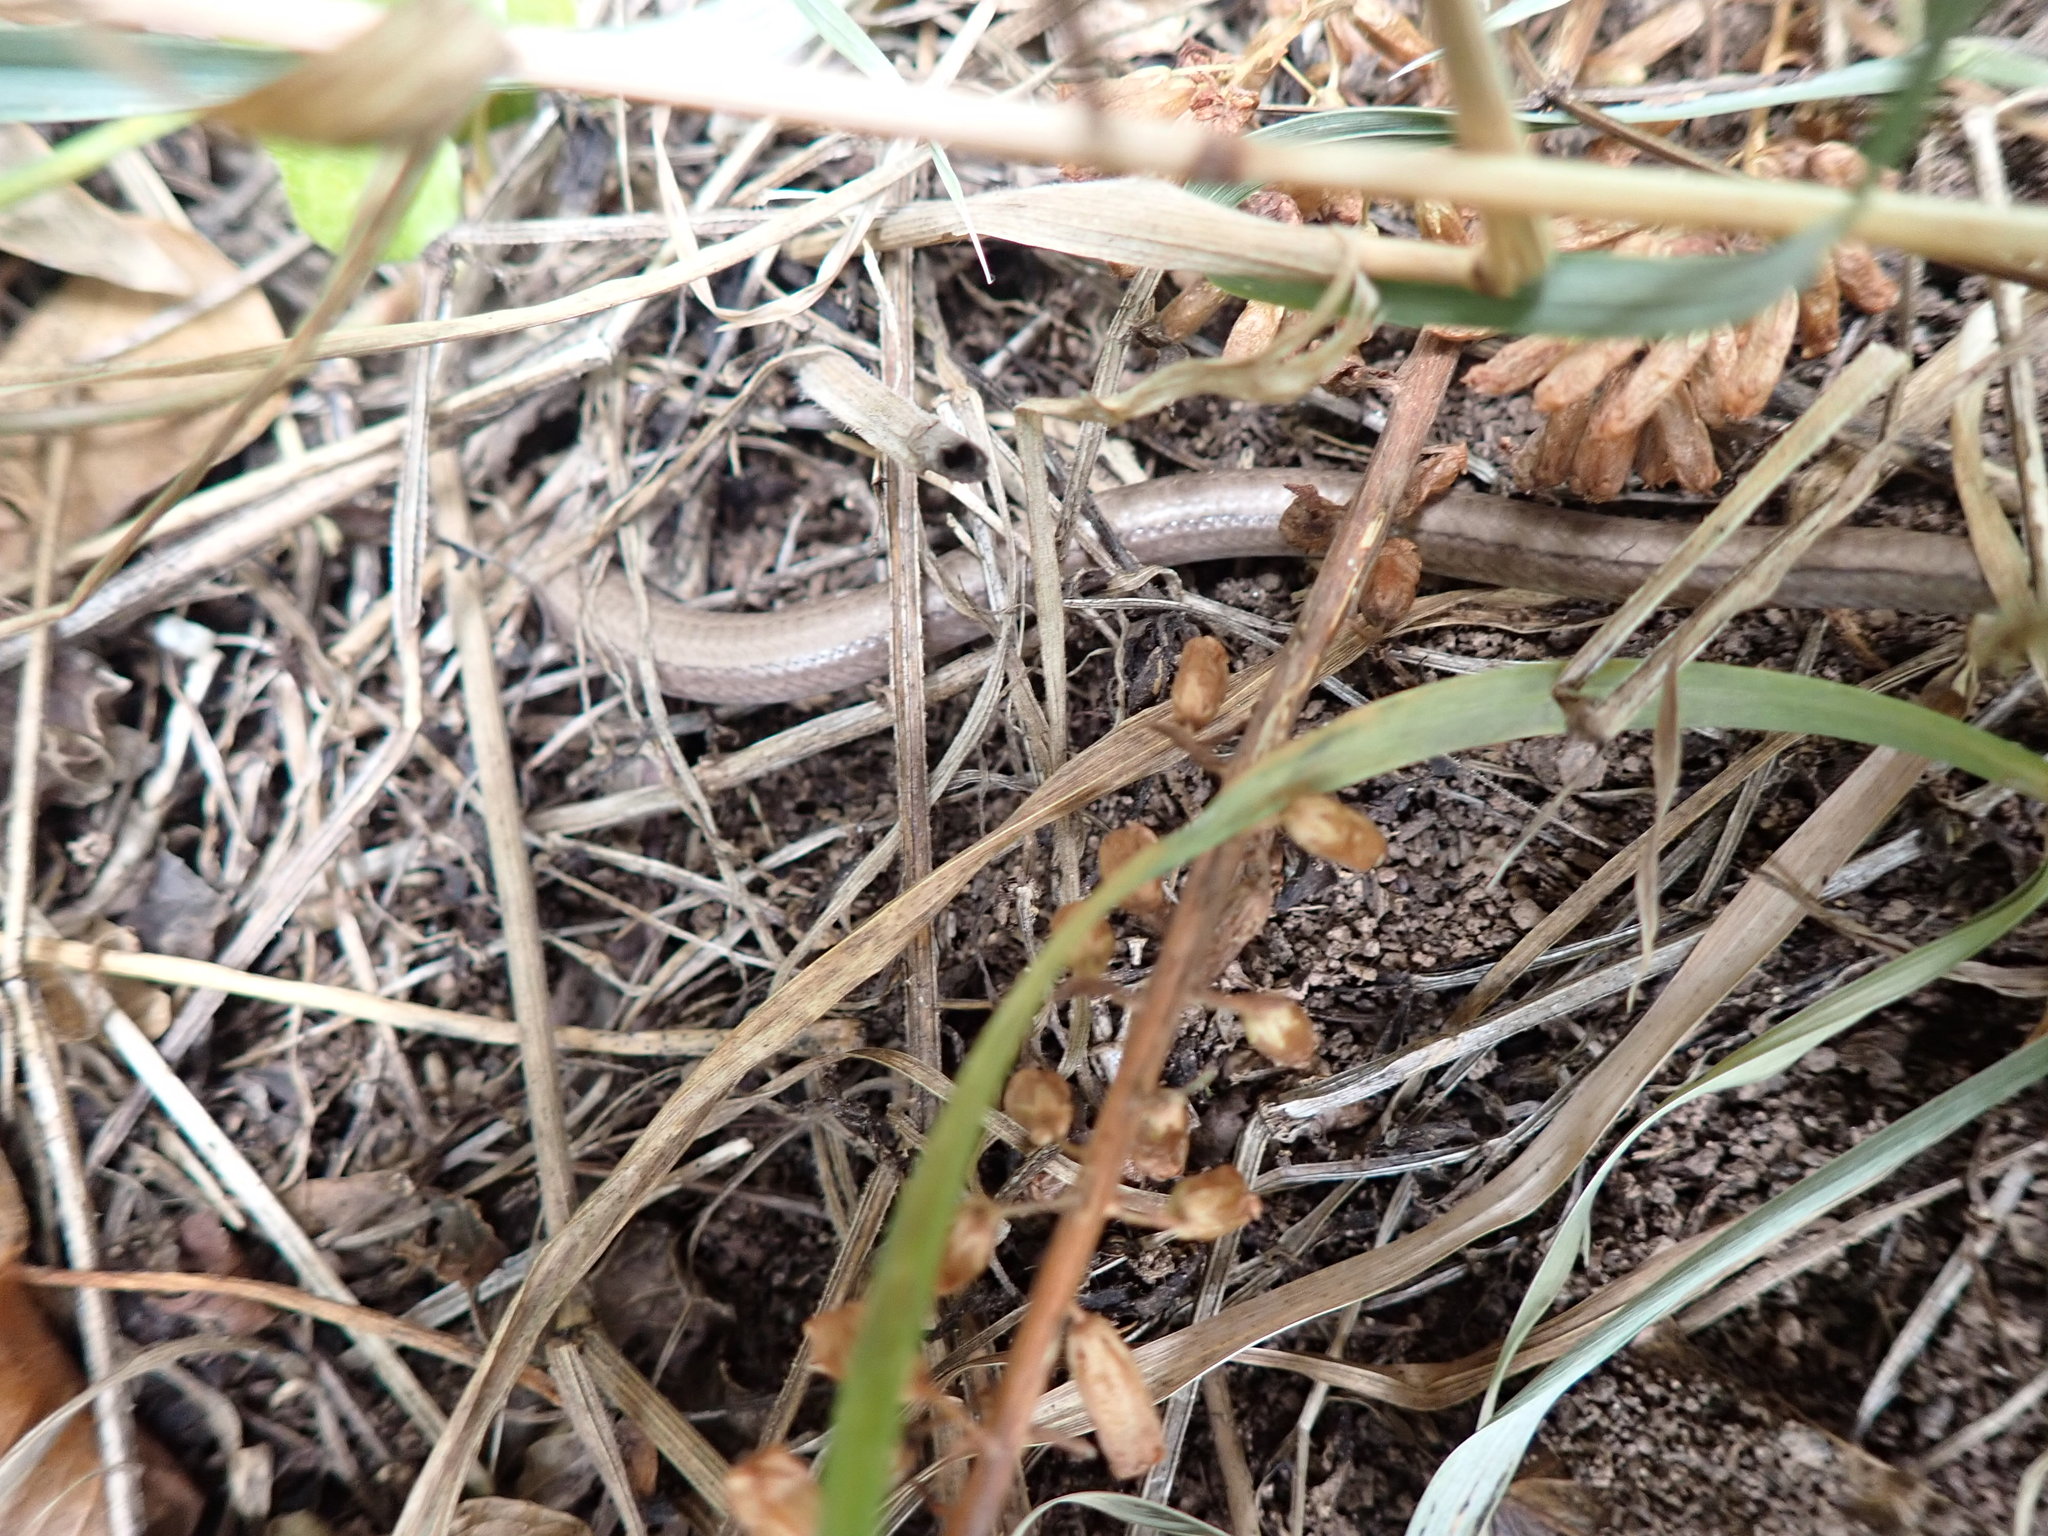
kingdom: Animalia
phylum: Chordata
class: Squamata
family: Anguidae
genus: Anguis
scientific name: Anguis fragilis
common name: Slow worm
